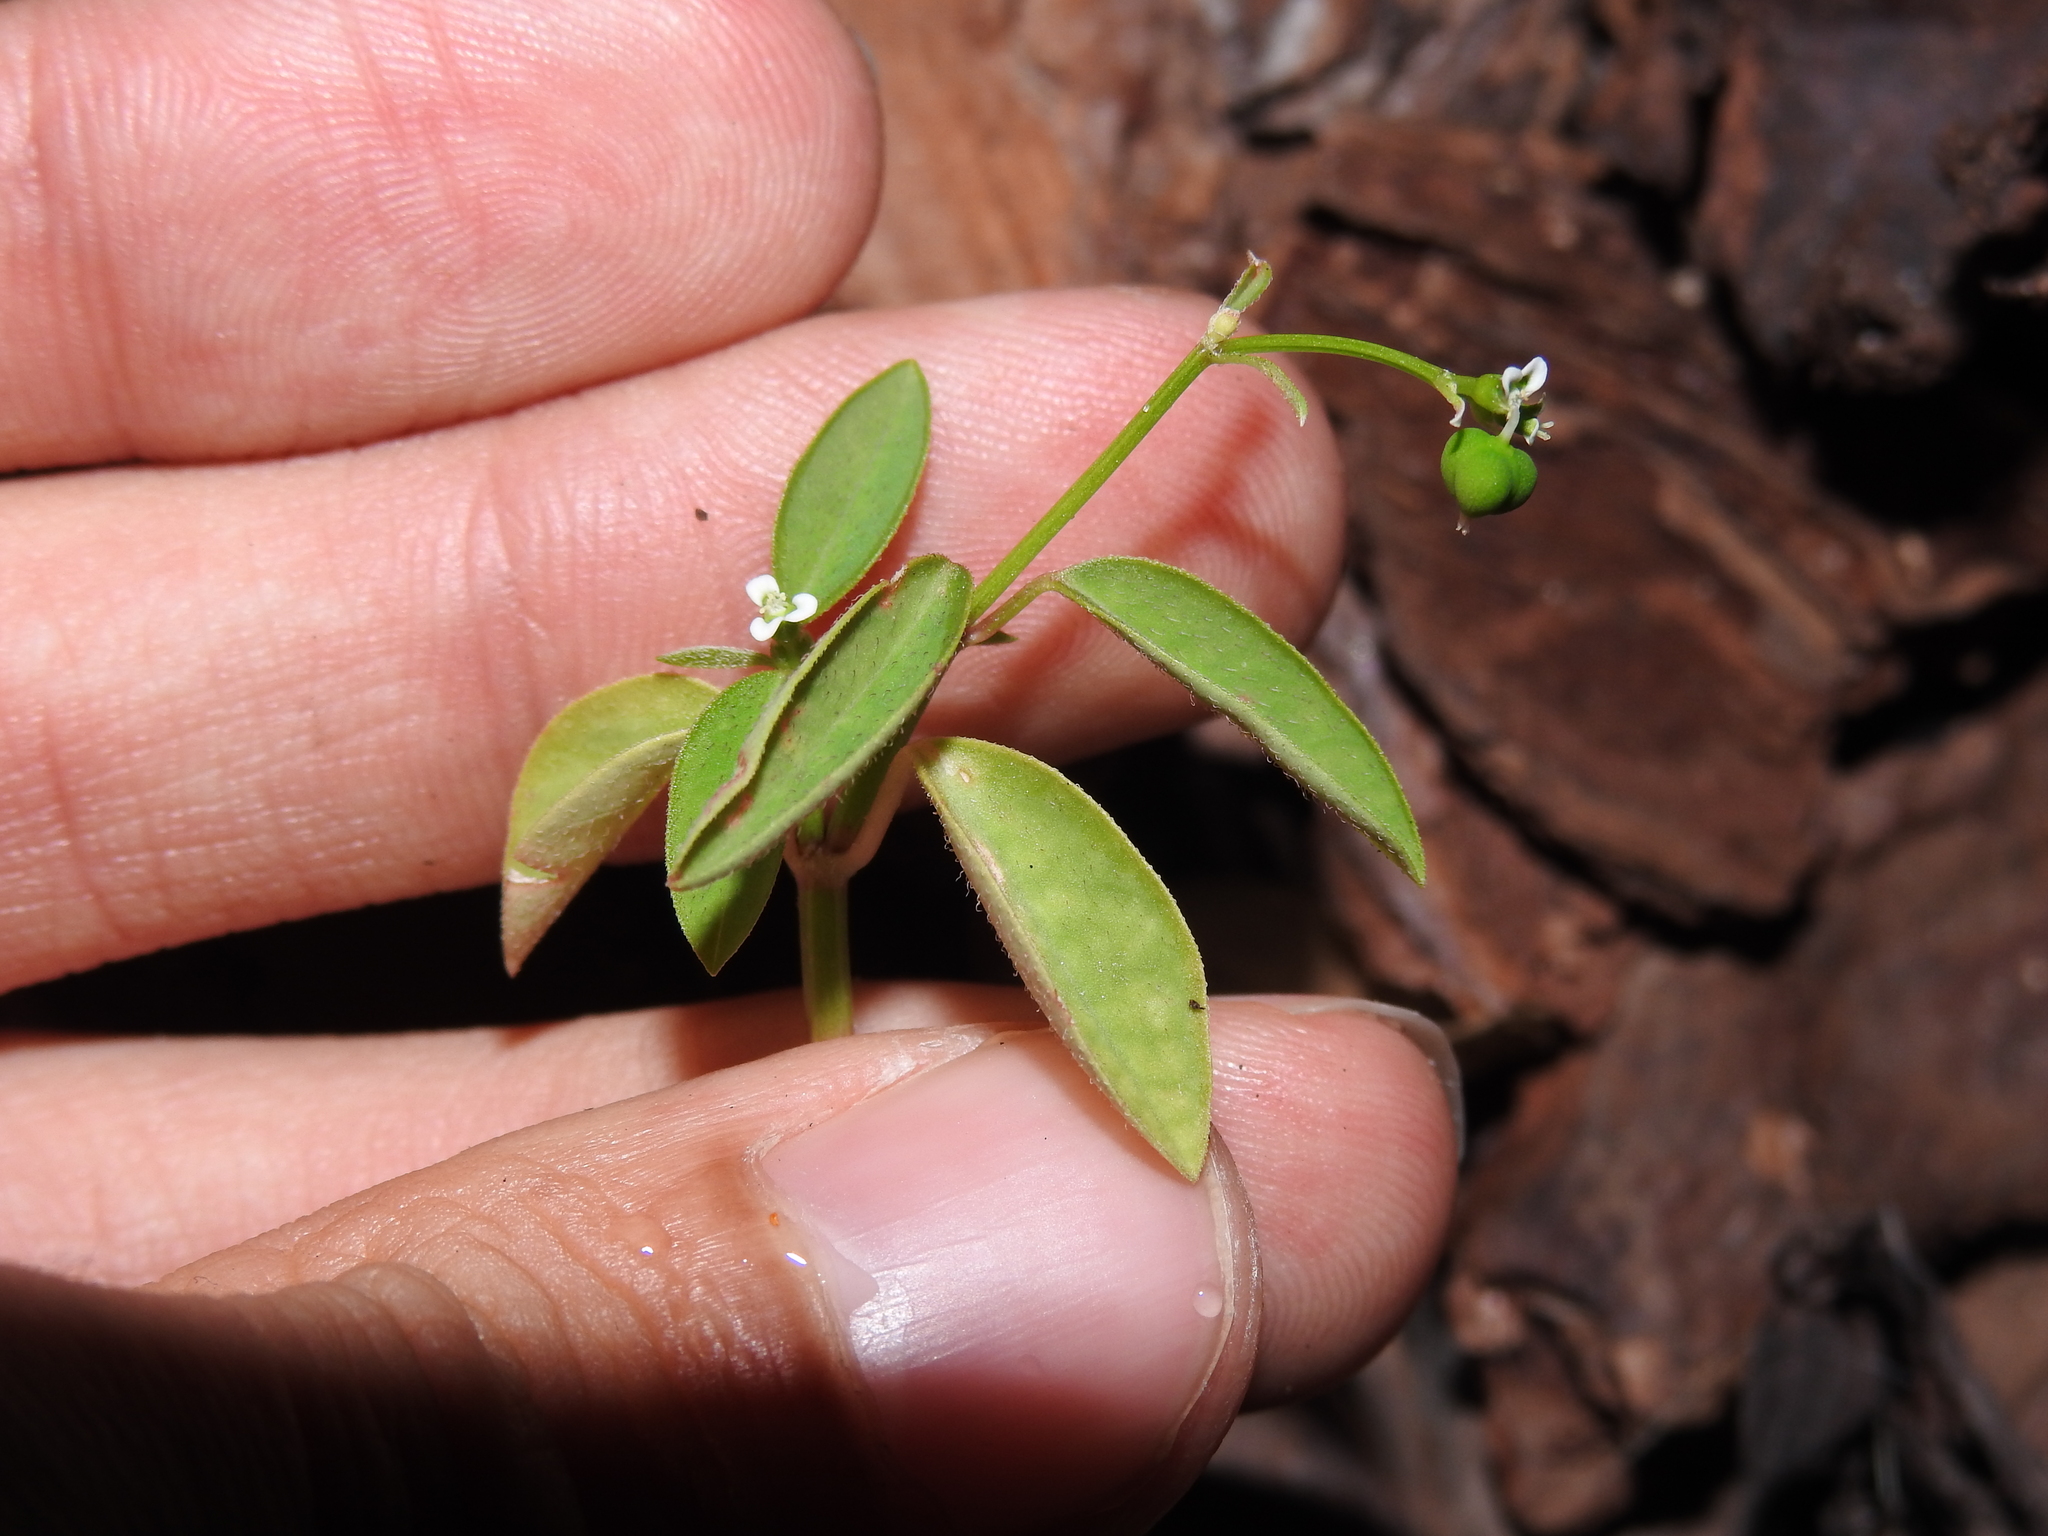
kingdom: Plantae
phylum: Tracheophyta
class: Magnoliopsida
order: Malpighiales
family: Euphorbiaceae
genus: Euphorbia
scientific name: Euphorbia graminea
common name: Grassleaf spurge
